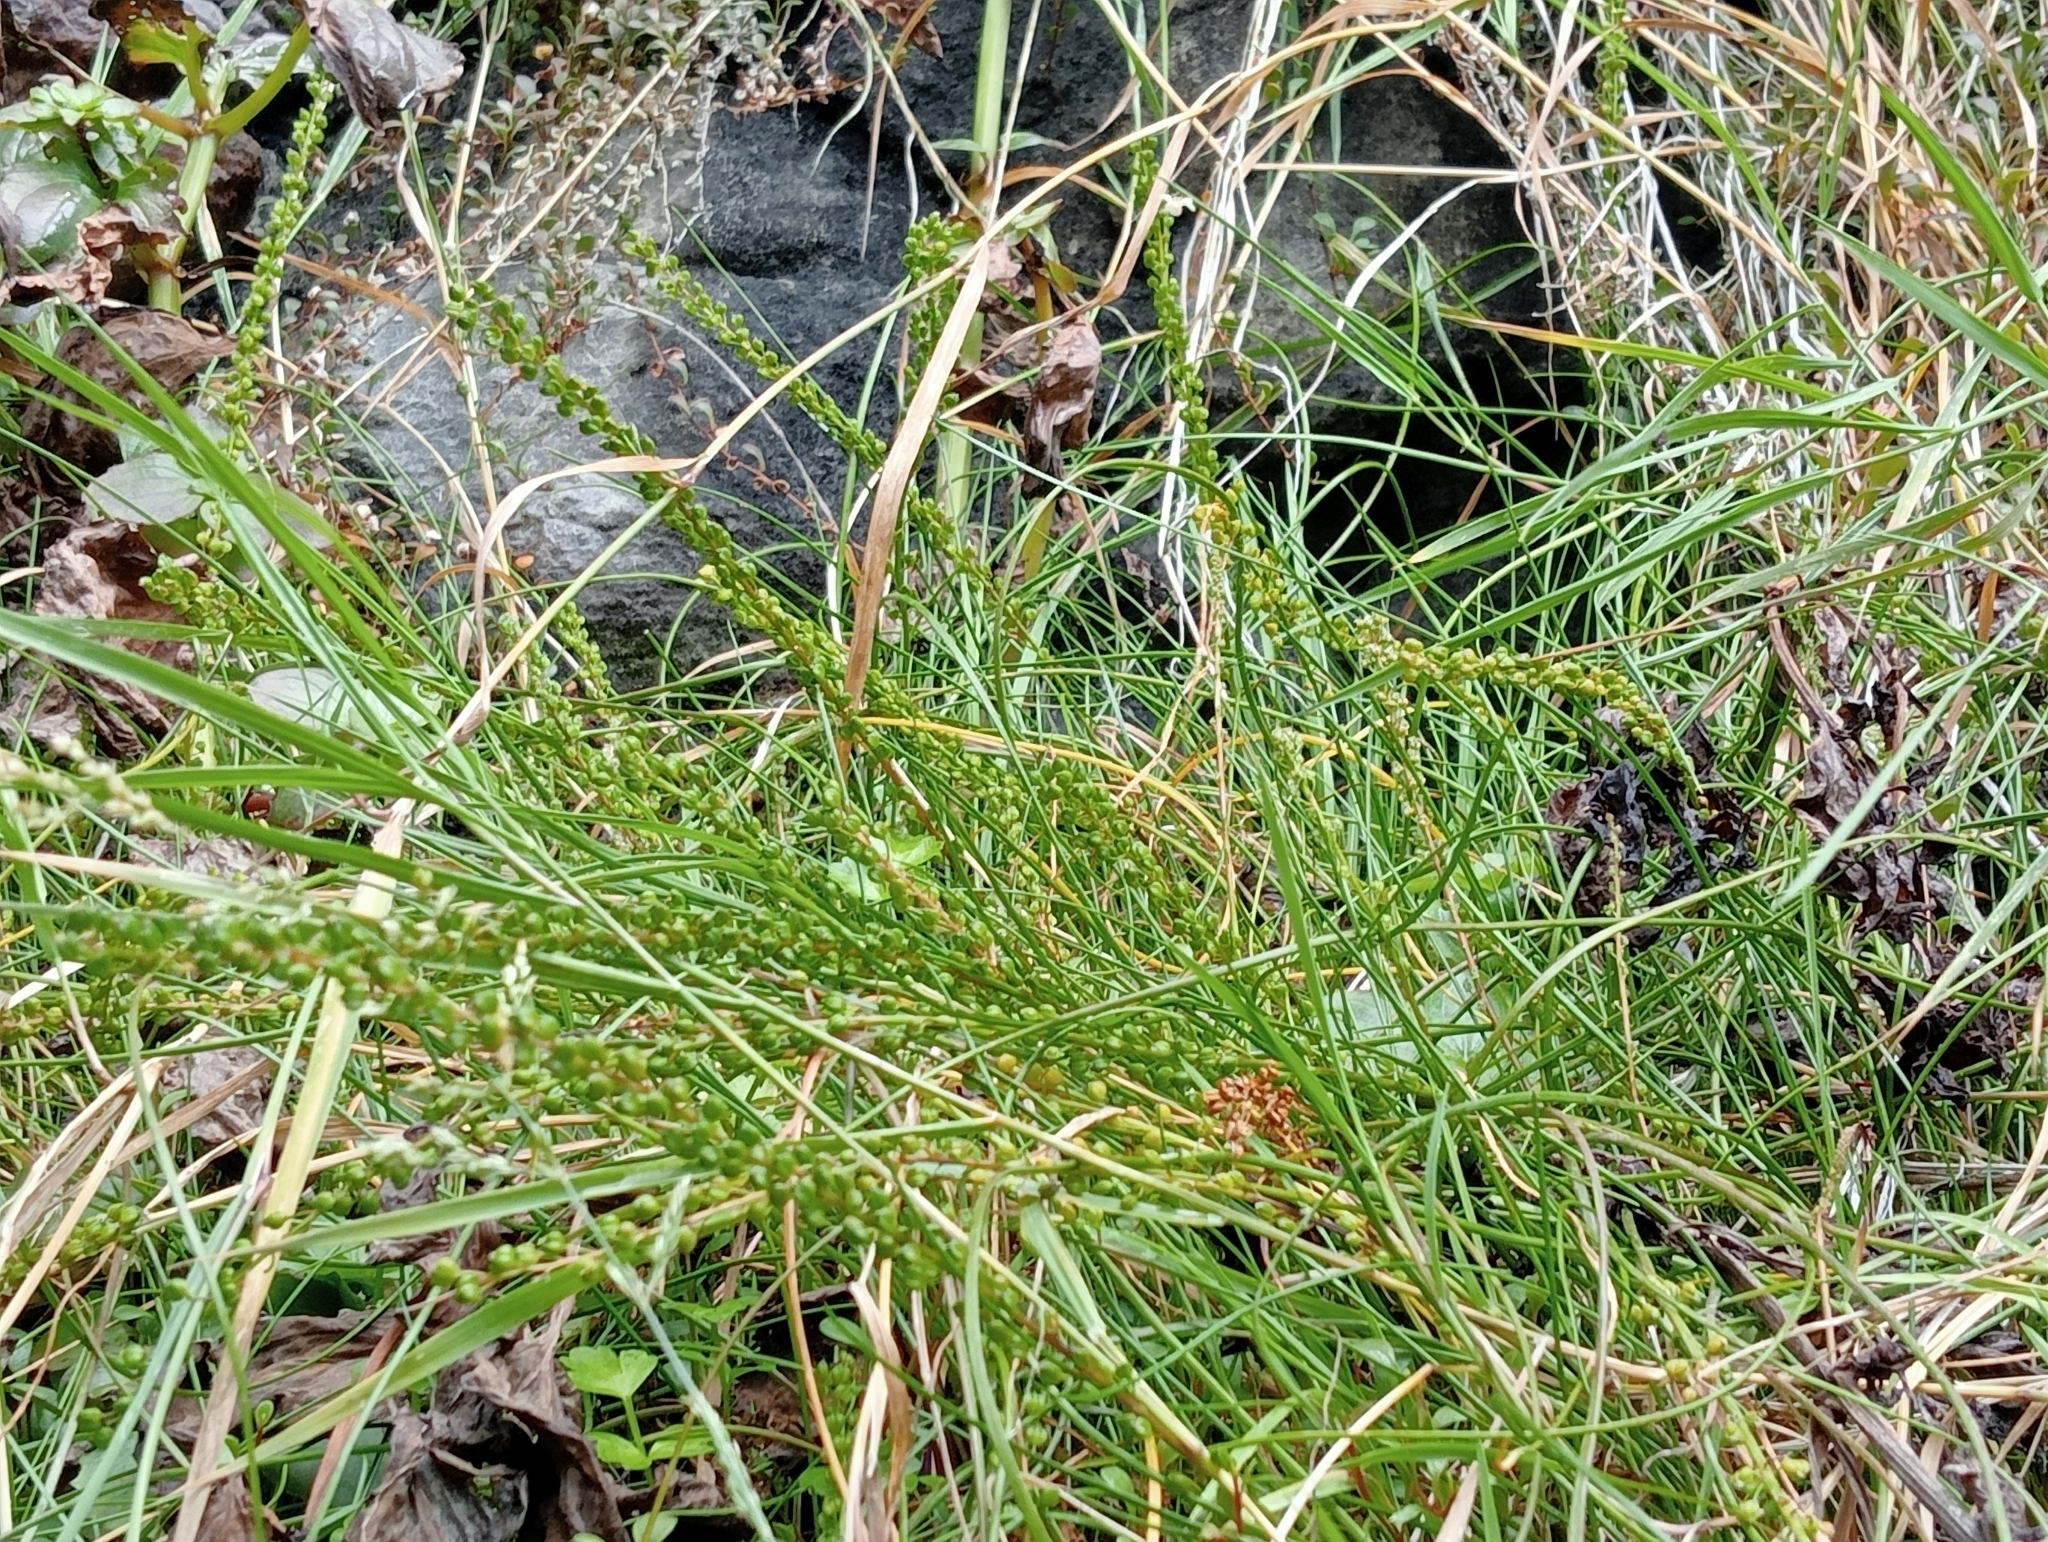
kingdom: Plantae
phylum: Tracheophyta
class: Liliopsida
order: Alismatales
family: Juncaginaceae
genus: Triglochin
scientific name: Triglochin striata
